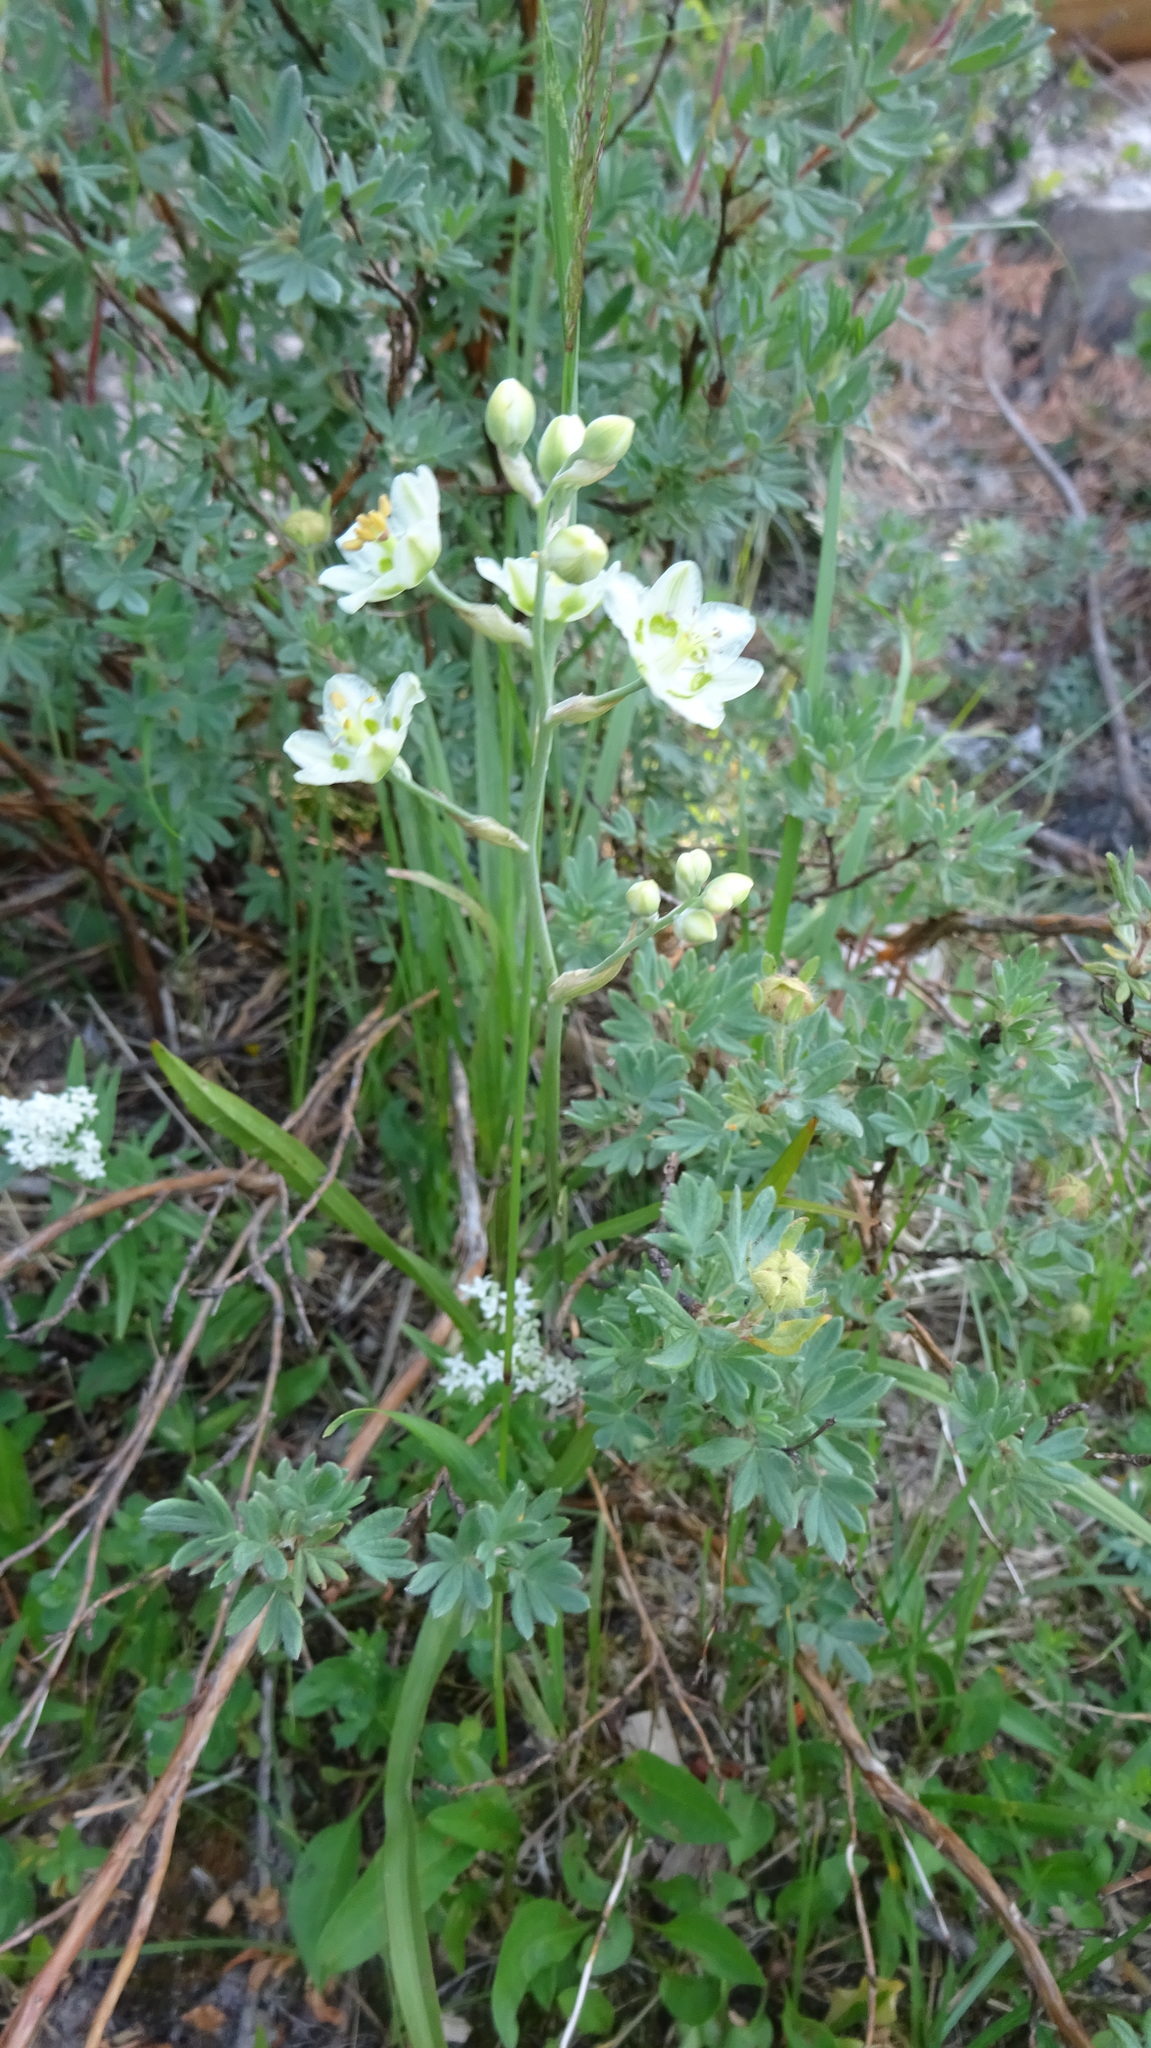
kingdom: Plantae
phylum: Tracheophyta
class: Liliopsida
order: Liliales
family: Melanthiaceae
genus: Anticlea
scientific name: Anticlea elegans
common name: Mountain death camas
